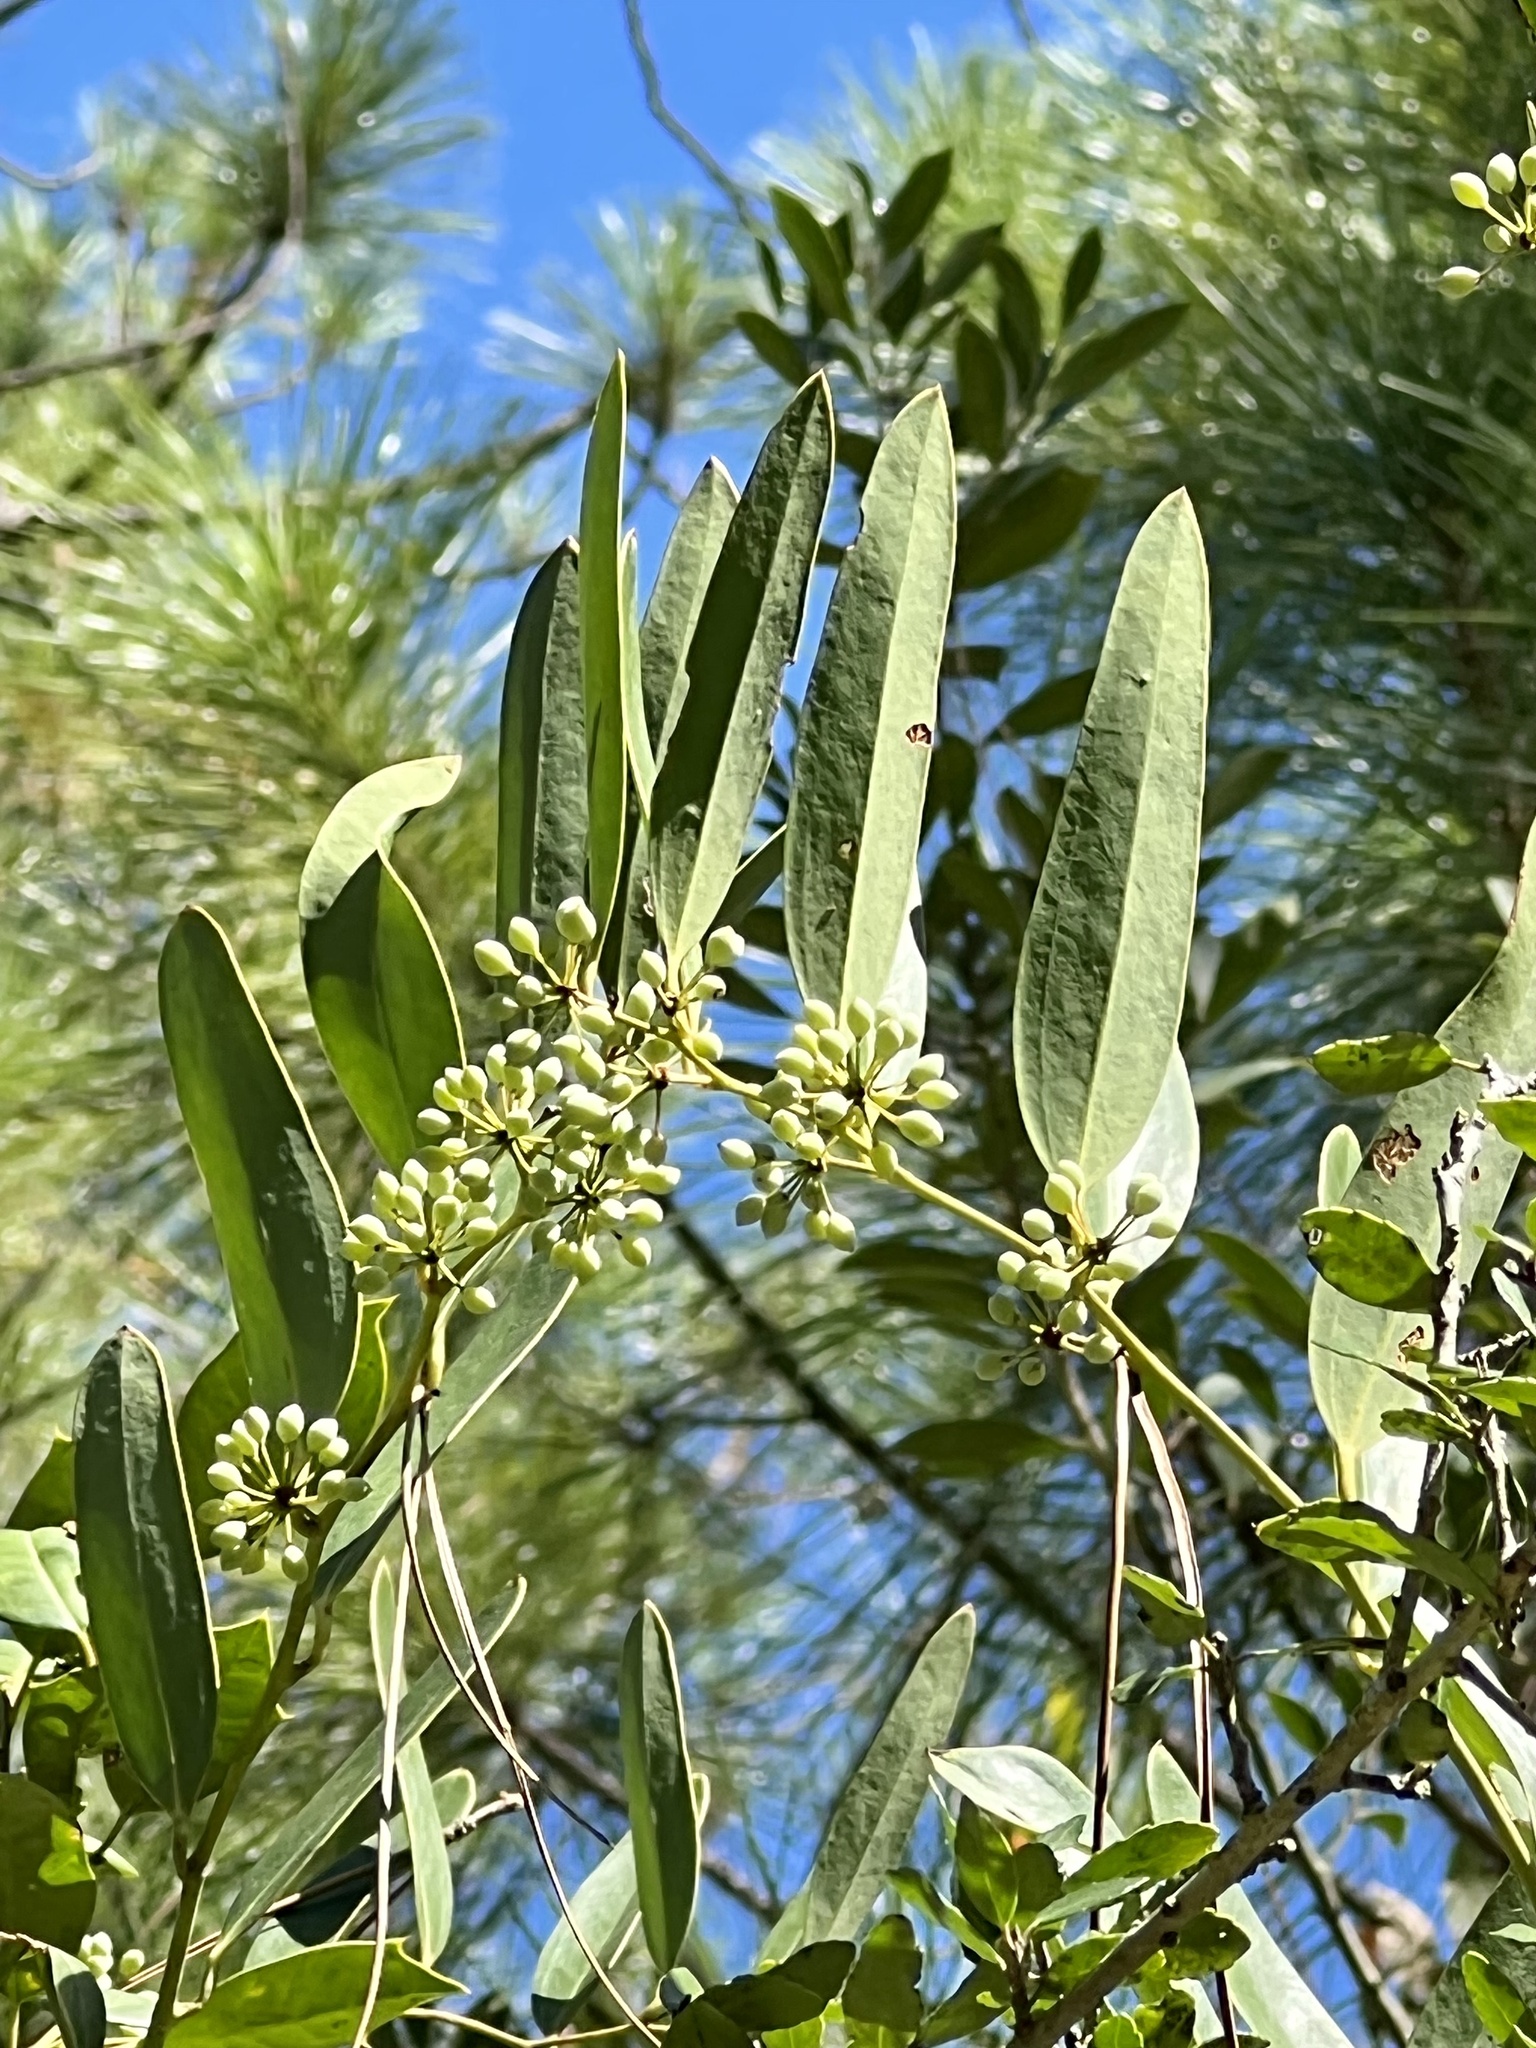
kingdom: Plantae
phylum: Tracheophyta
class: Liliopsida
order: Liliales
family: Smilacaceae
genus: Smilax
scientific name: Smilax laurifolia
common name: Bamboovine
